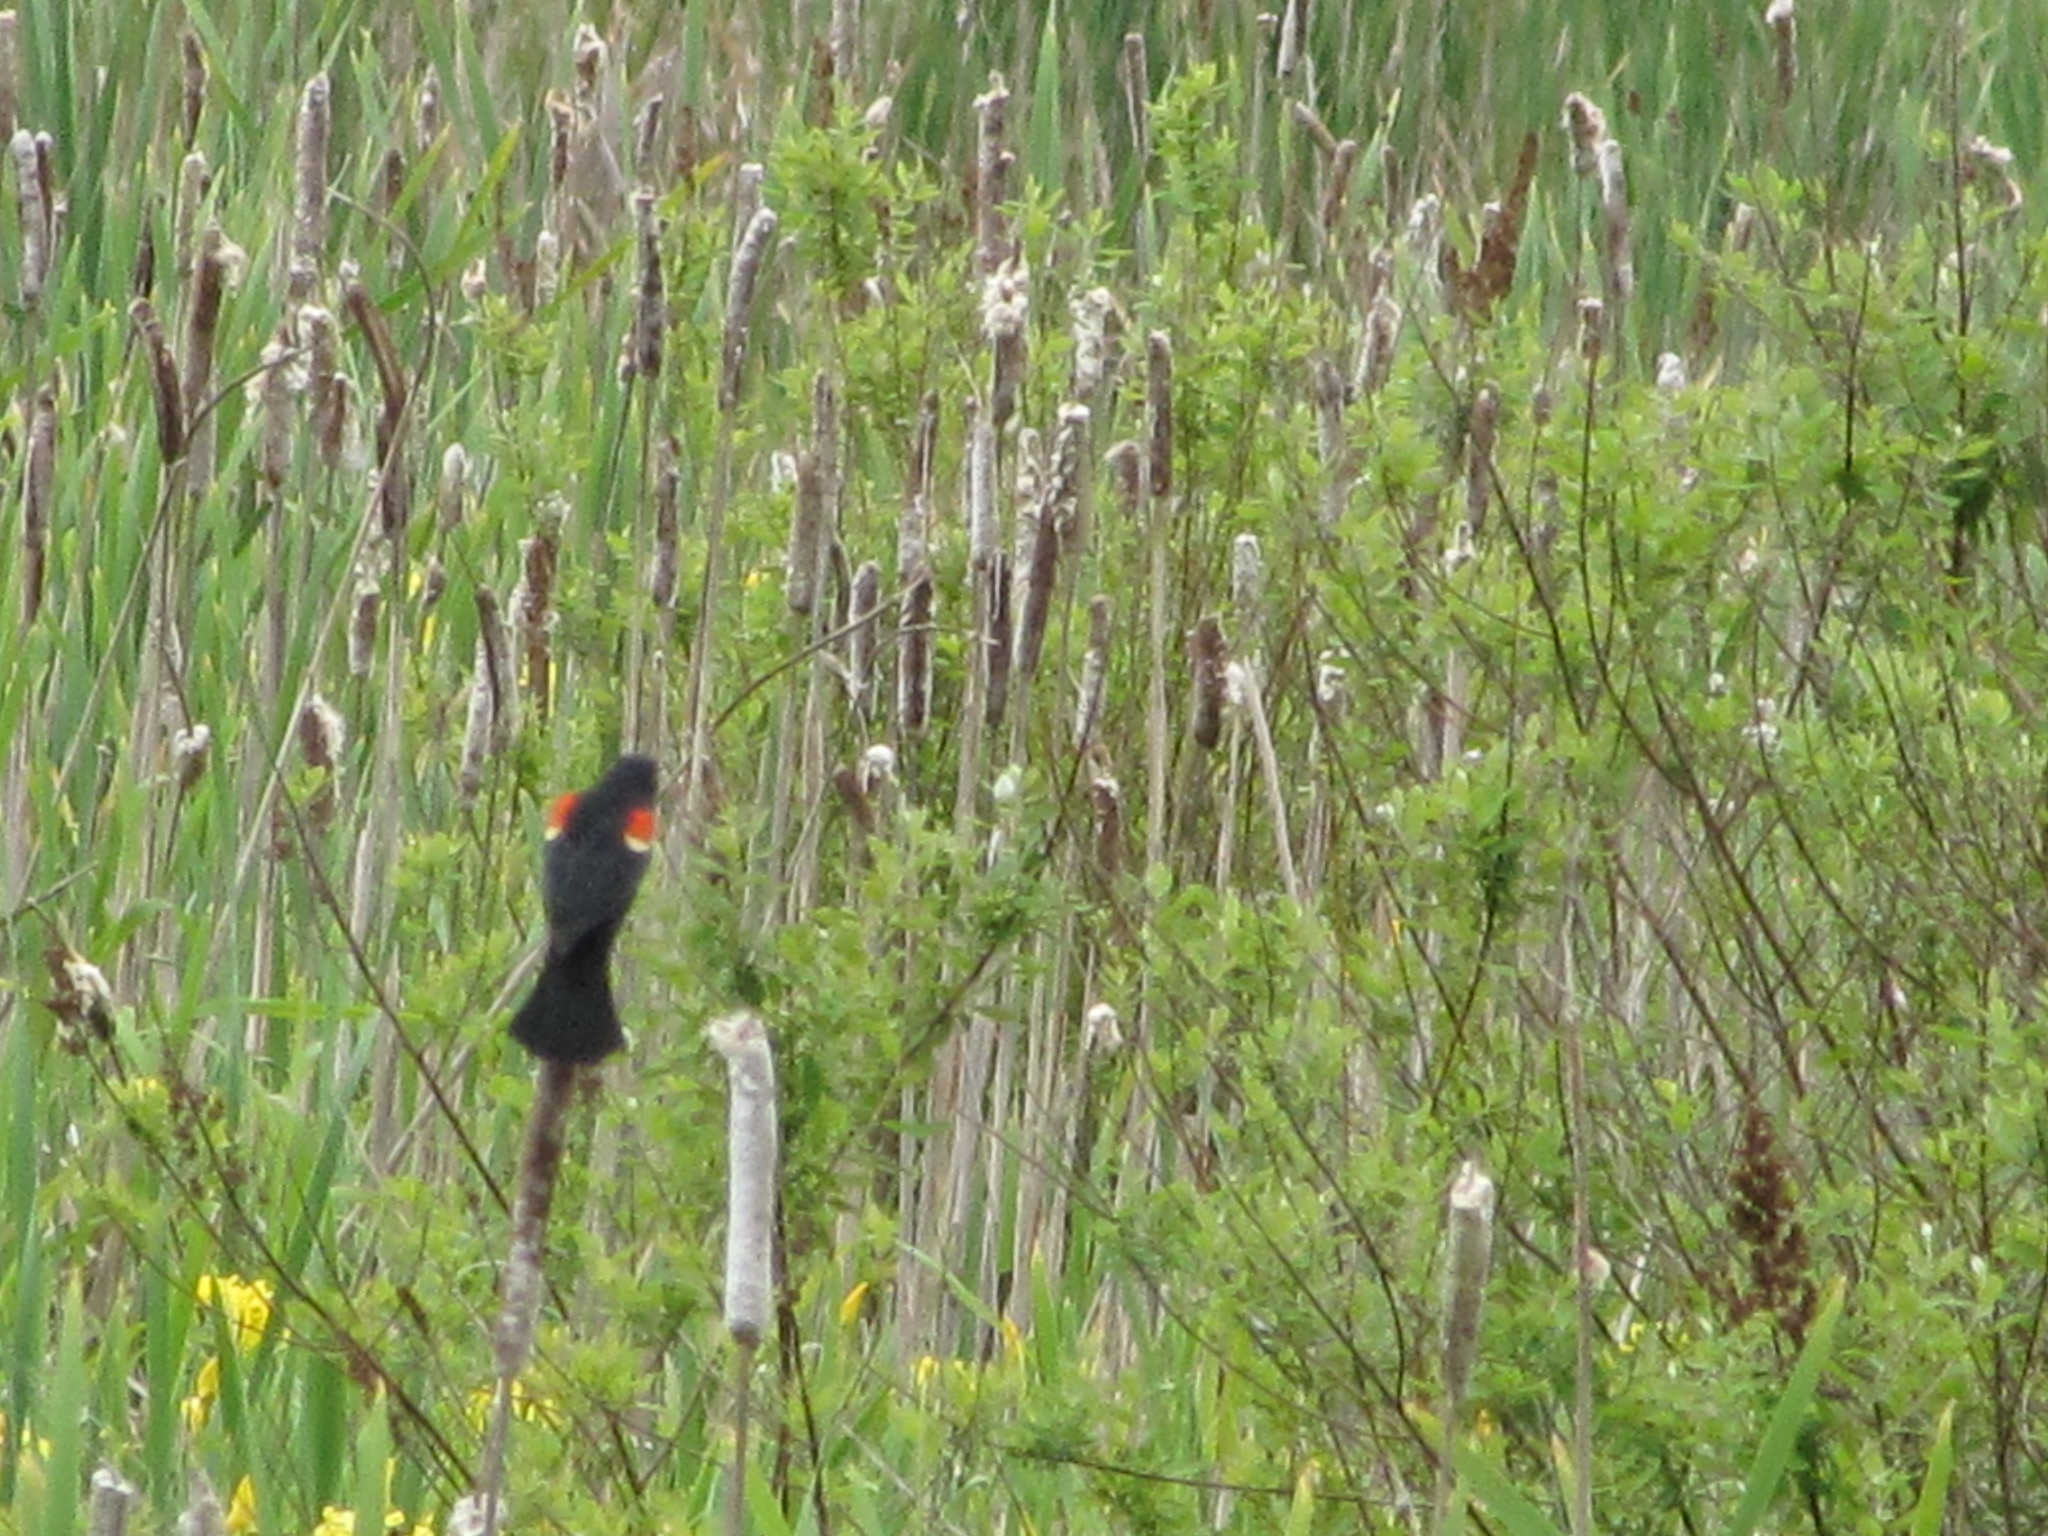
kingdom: Animalia
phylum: Chordata
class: Aves
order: Passeriformes
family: Icteridae
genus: Agelaius
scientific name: Agelaius phoeniceus
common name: Red-winged blackbird
